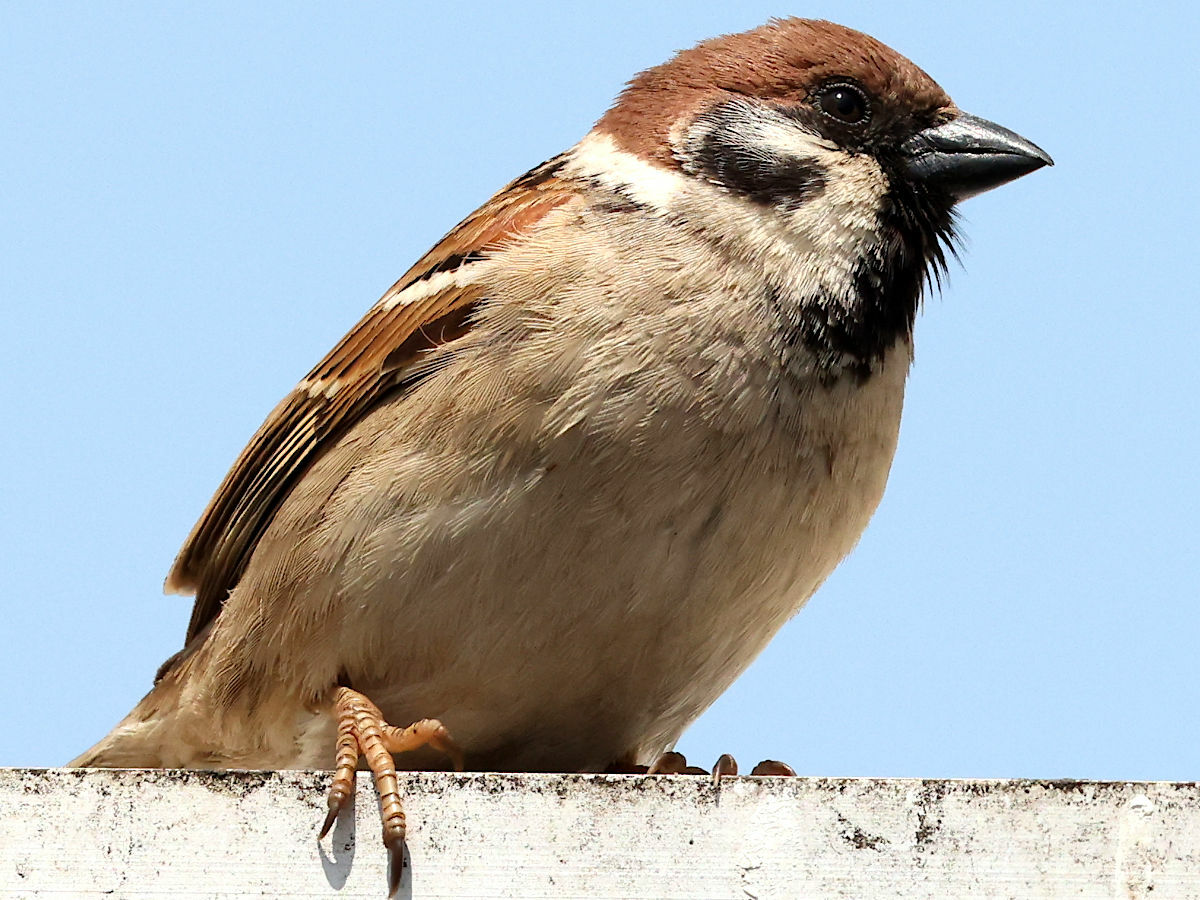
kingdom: Animalia
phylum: Chordata
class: Aves
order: Passeriformes
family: Passeridae
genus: Passer
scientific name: Passer montanus
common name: Eurasian tree sparrow
